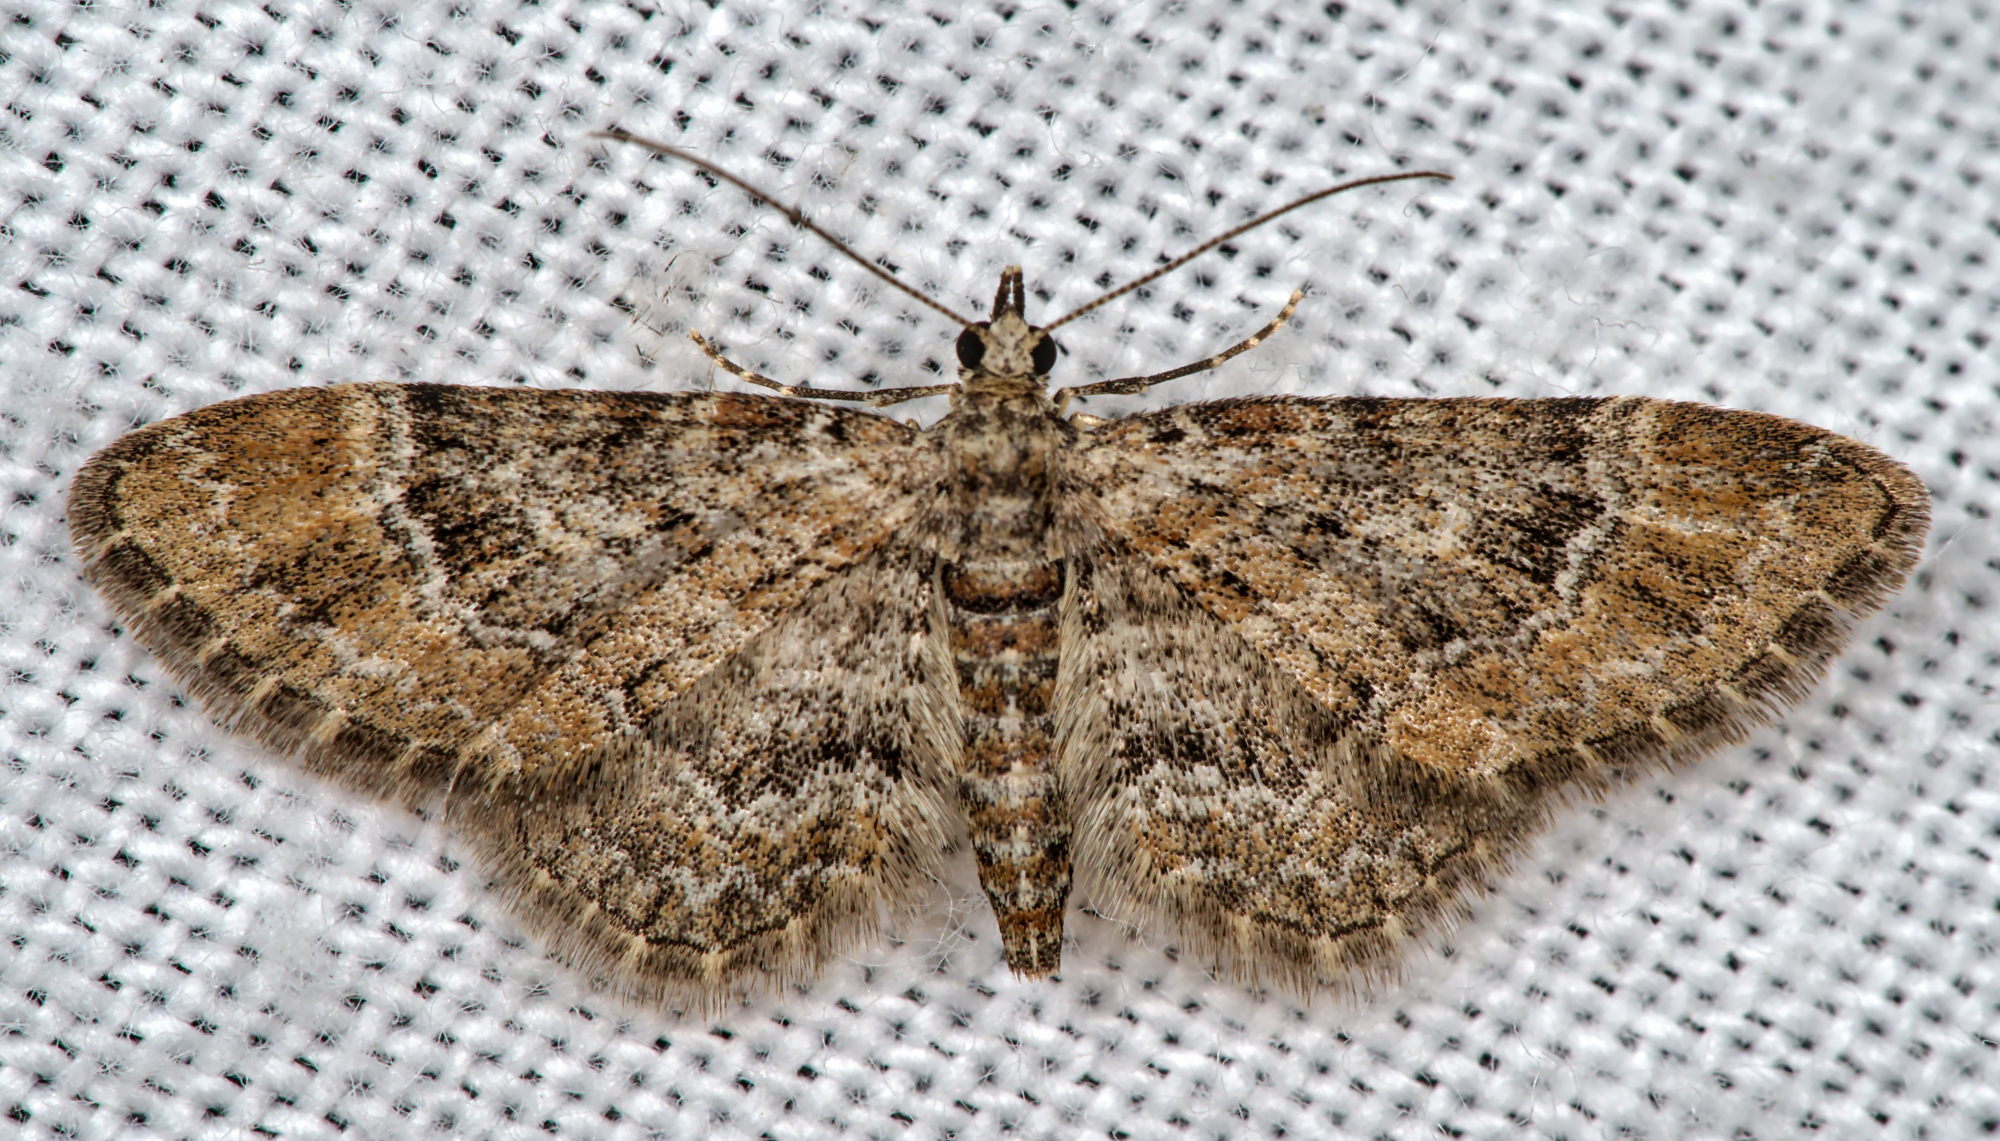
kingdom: Animalia
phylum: Arthropoda
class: Insecta
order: Lepidoptera
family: Geometridae
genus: Gymnoscelis
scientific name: Gymnoscelis rufifasciata
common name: Double-striped pug
